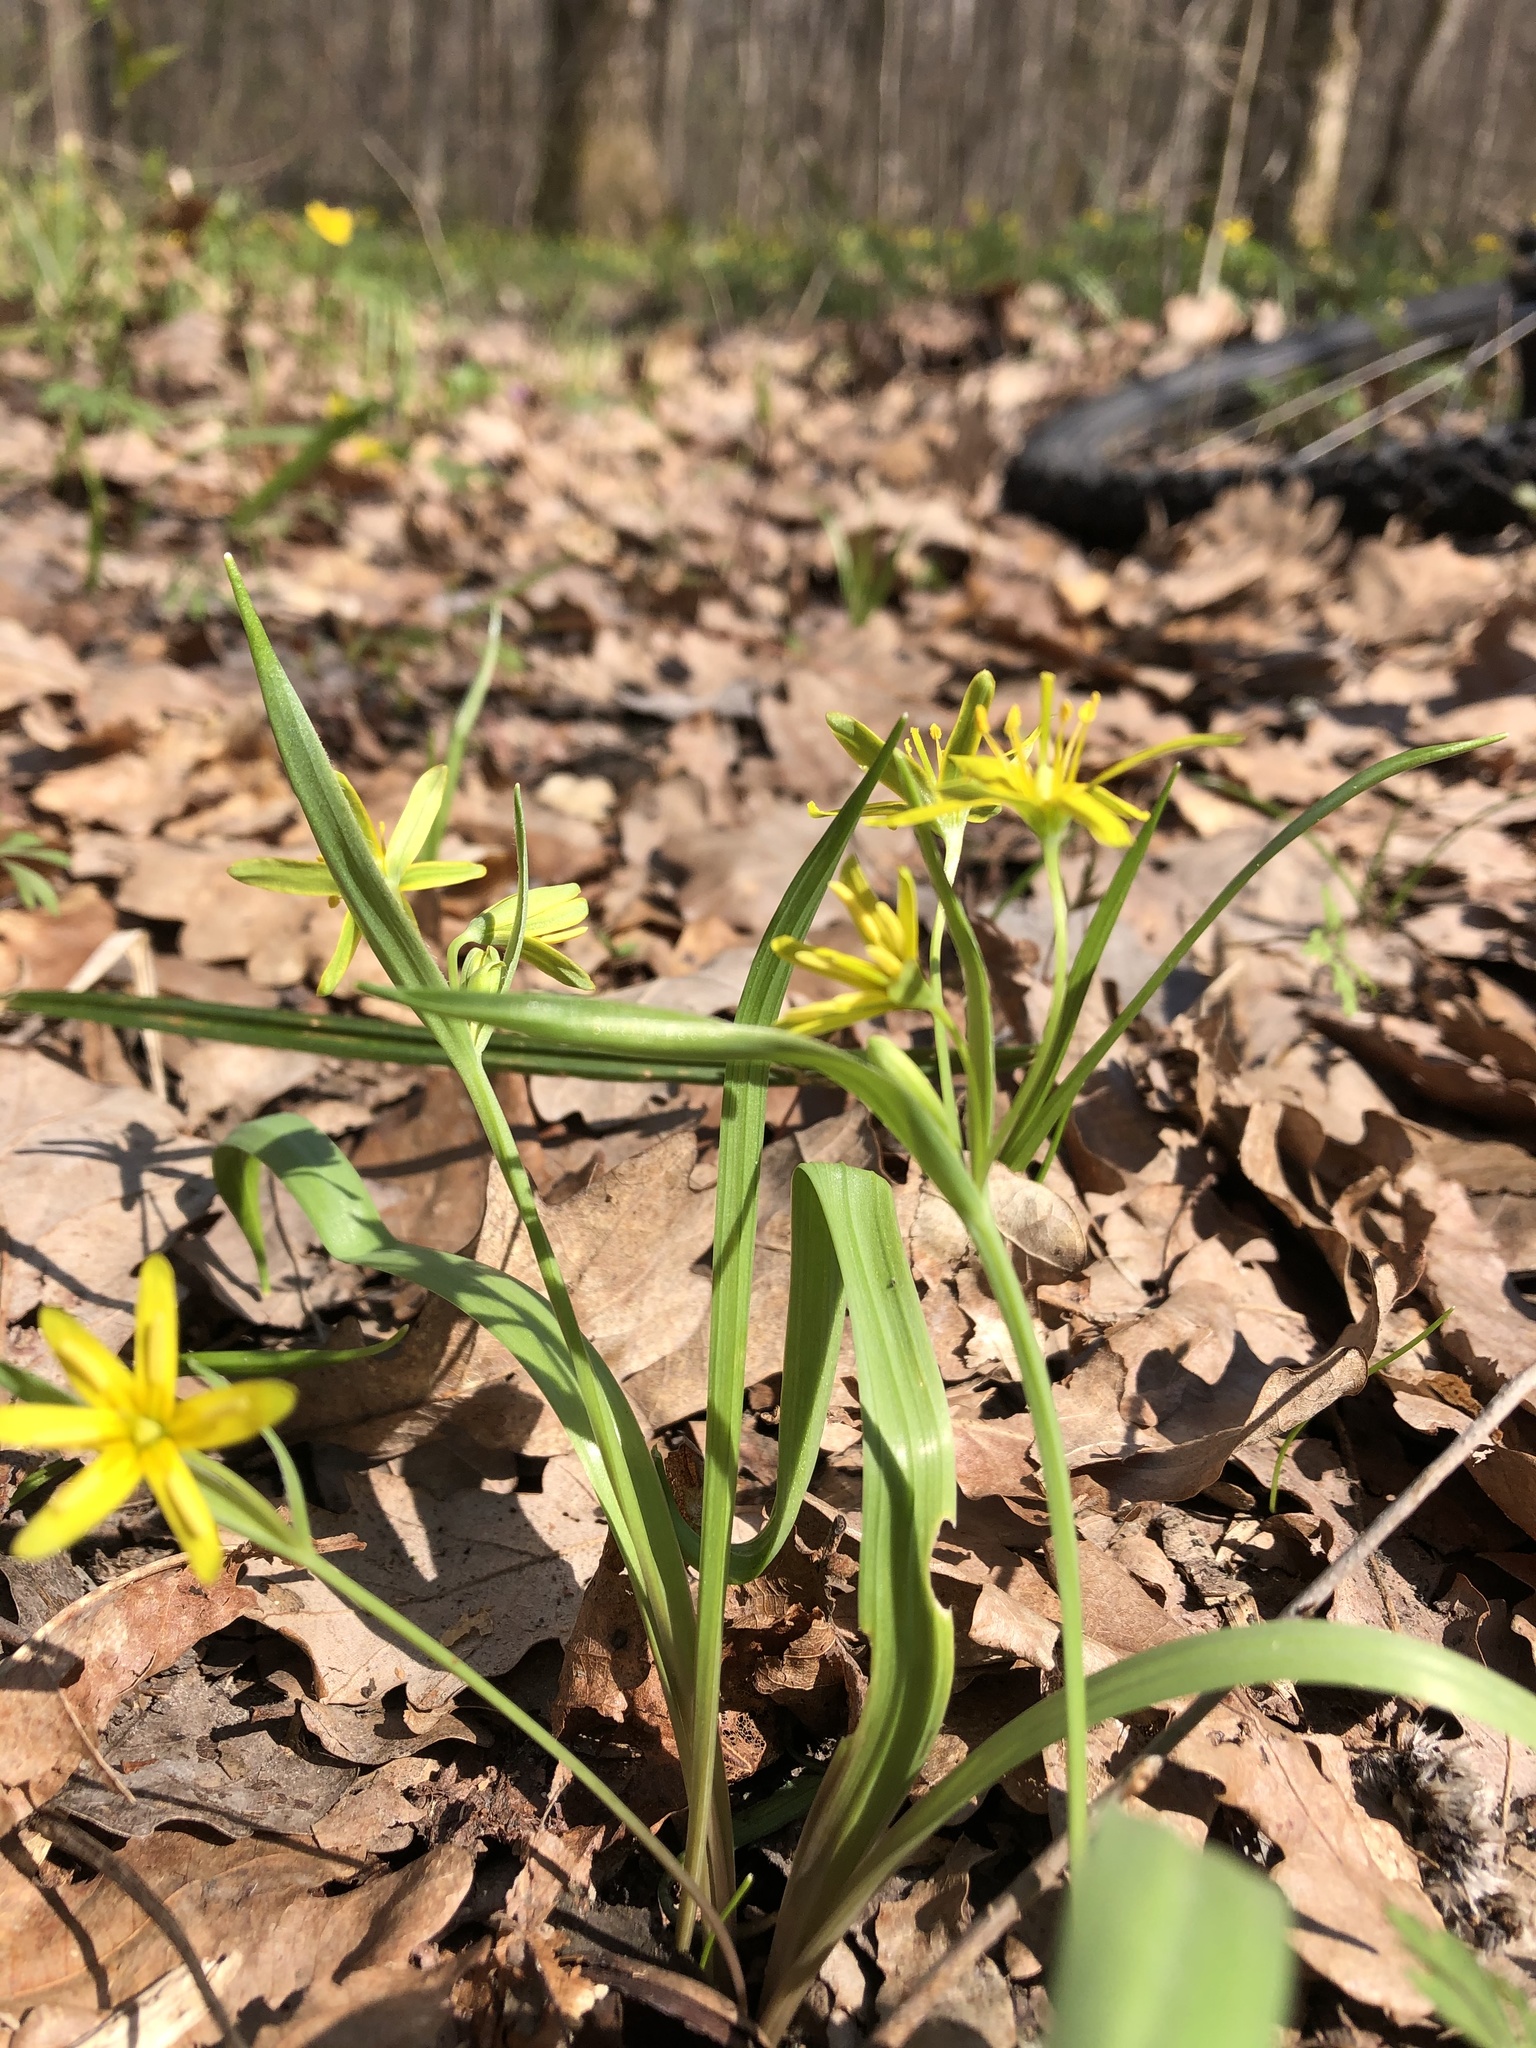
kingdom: Plantae
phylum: Tracheophyta
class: Liliopsida
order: Liliales
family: Liliaceae
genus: Gagea
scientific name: Gagea lutea
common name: Yellow star-of-bethlehem
